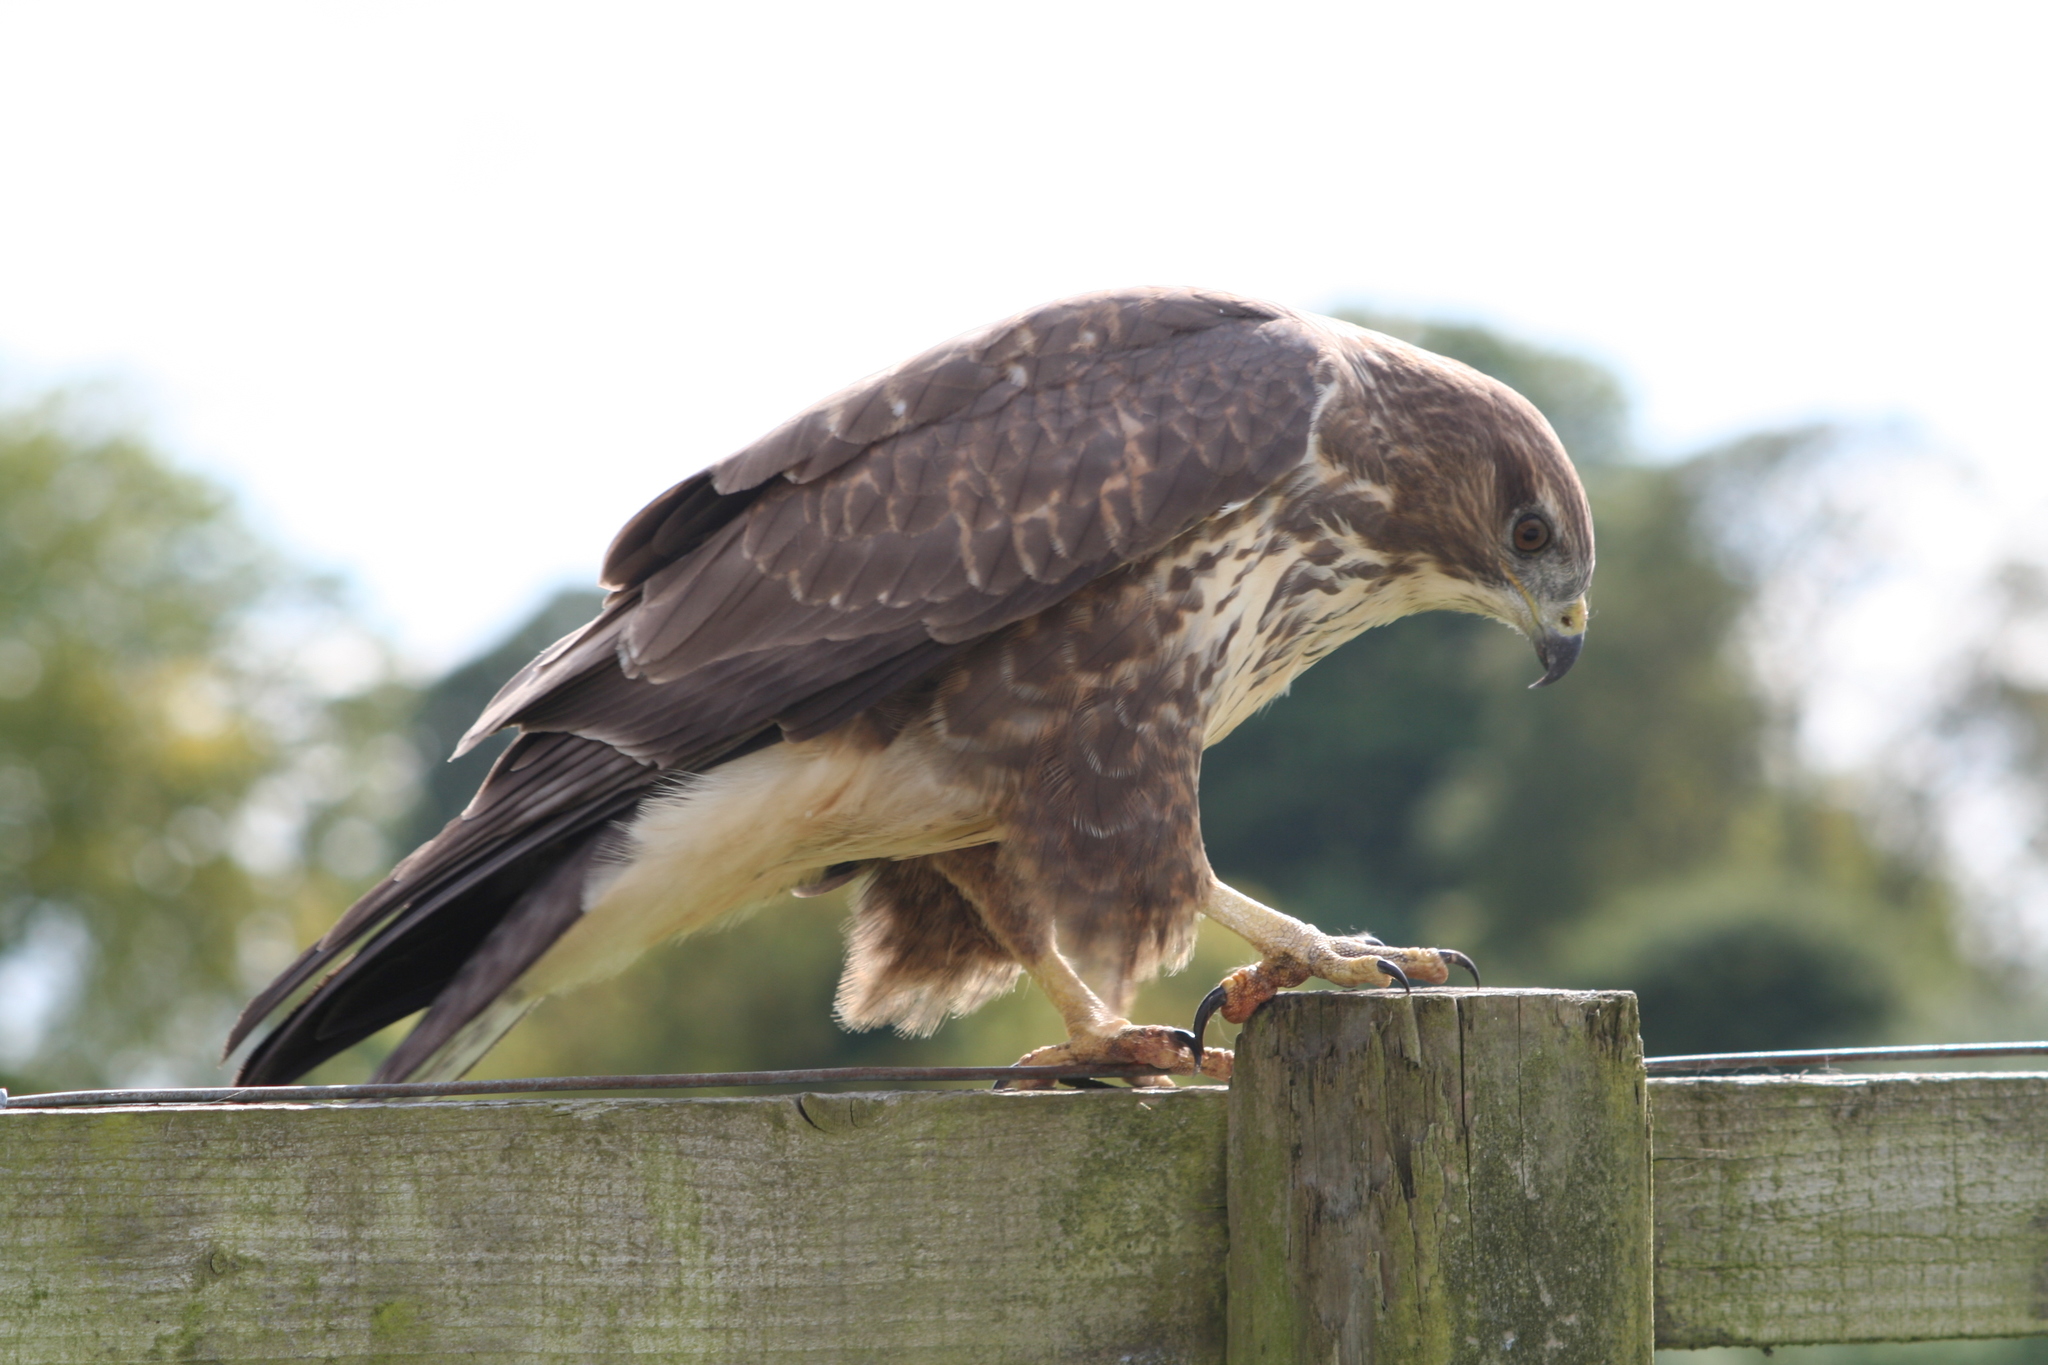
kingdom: Animalia
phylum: Chordata
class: Aves
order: Accipitriformes
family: Accipitridae
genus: Buteo
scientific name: Buteo buteo
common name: Common buzzard
